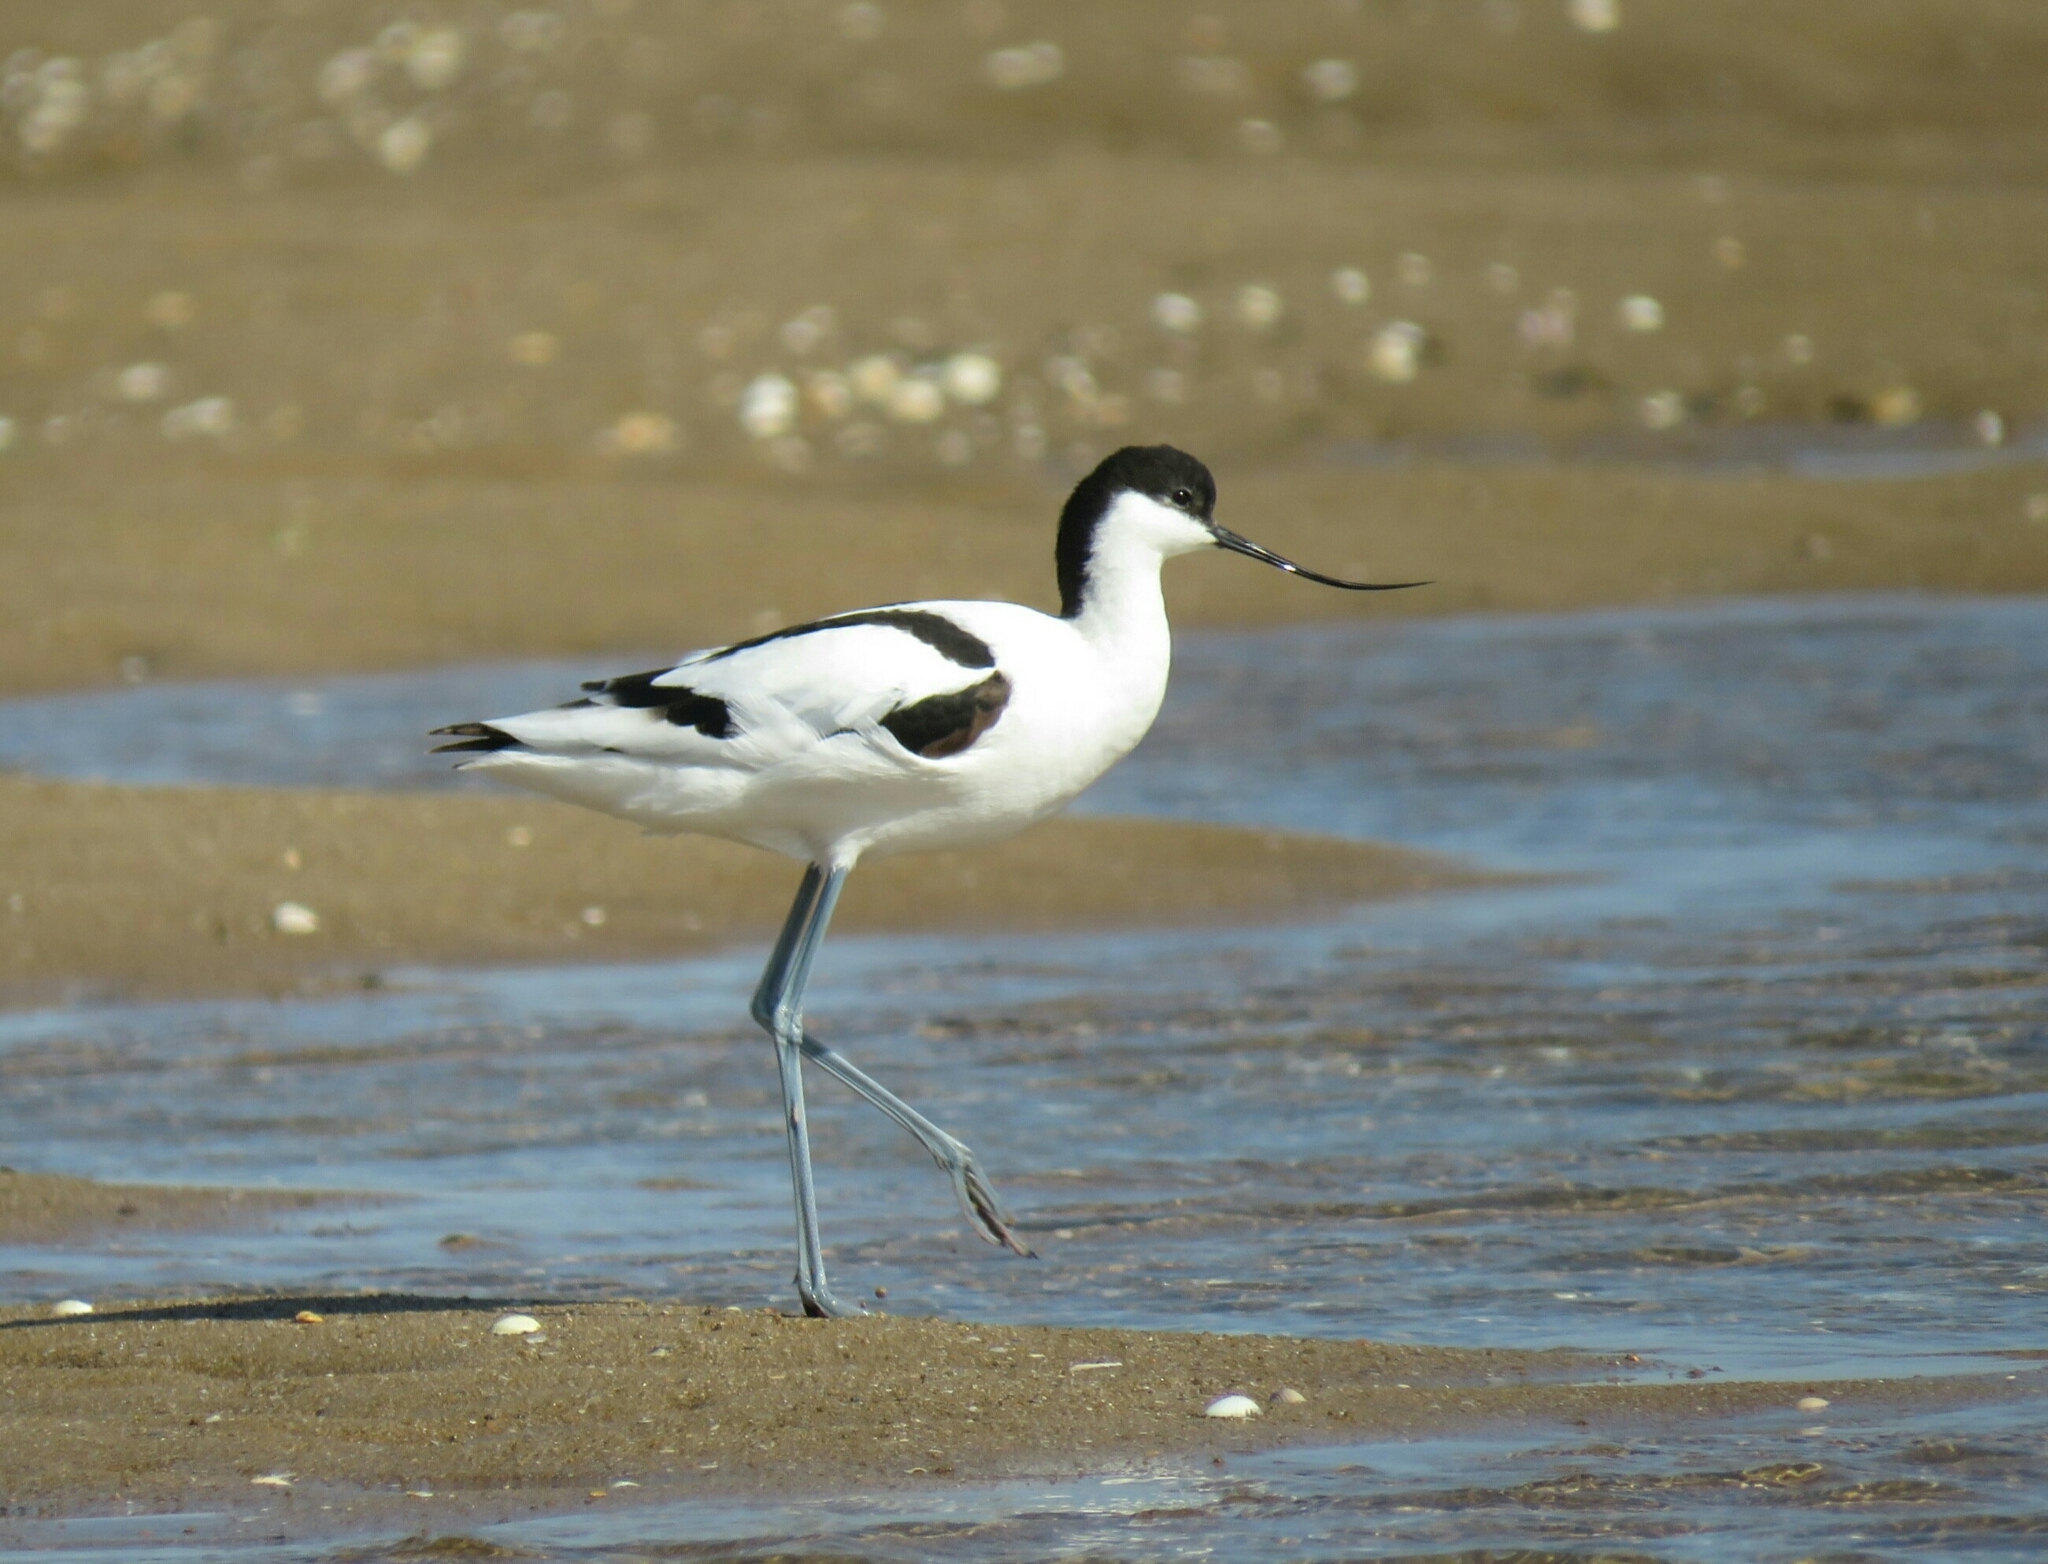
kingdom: Animalia
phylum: Chordata
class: Aves
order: Charadriiformes
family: Recurvirostridae
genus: Recurvirostra
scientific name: Recurvirostra avosetta
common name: Pied avocet
